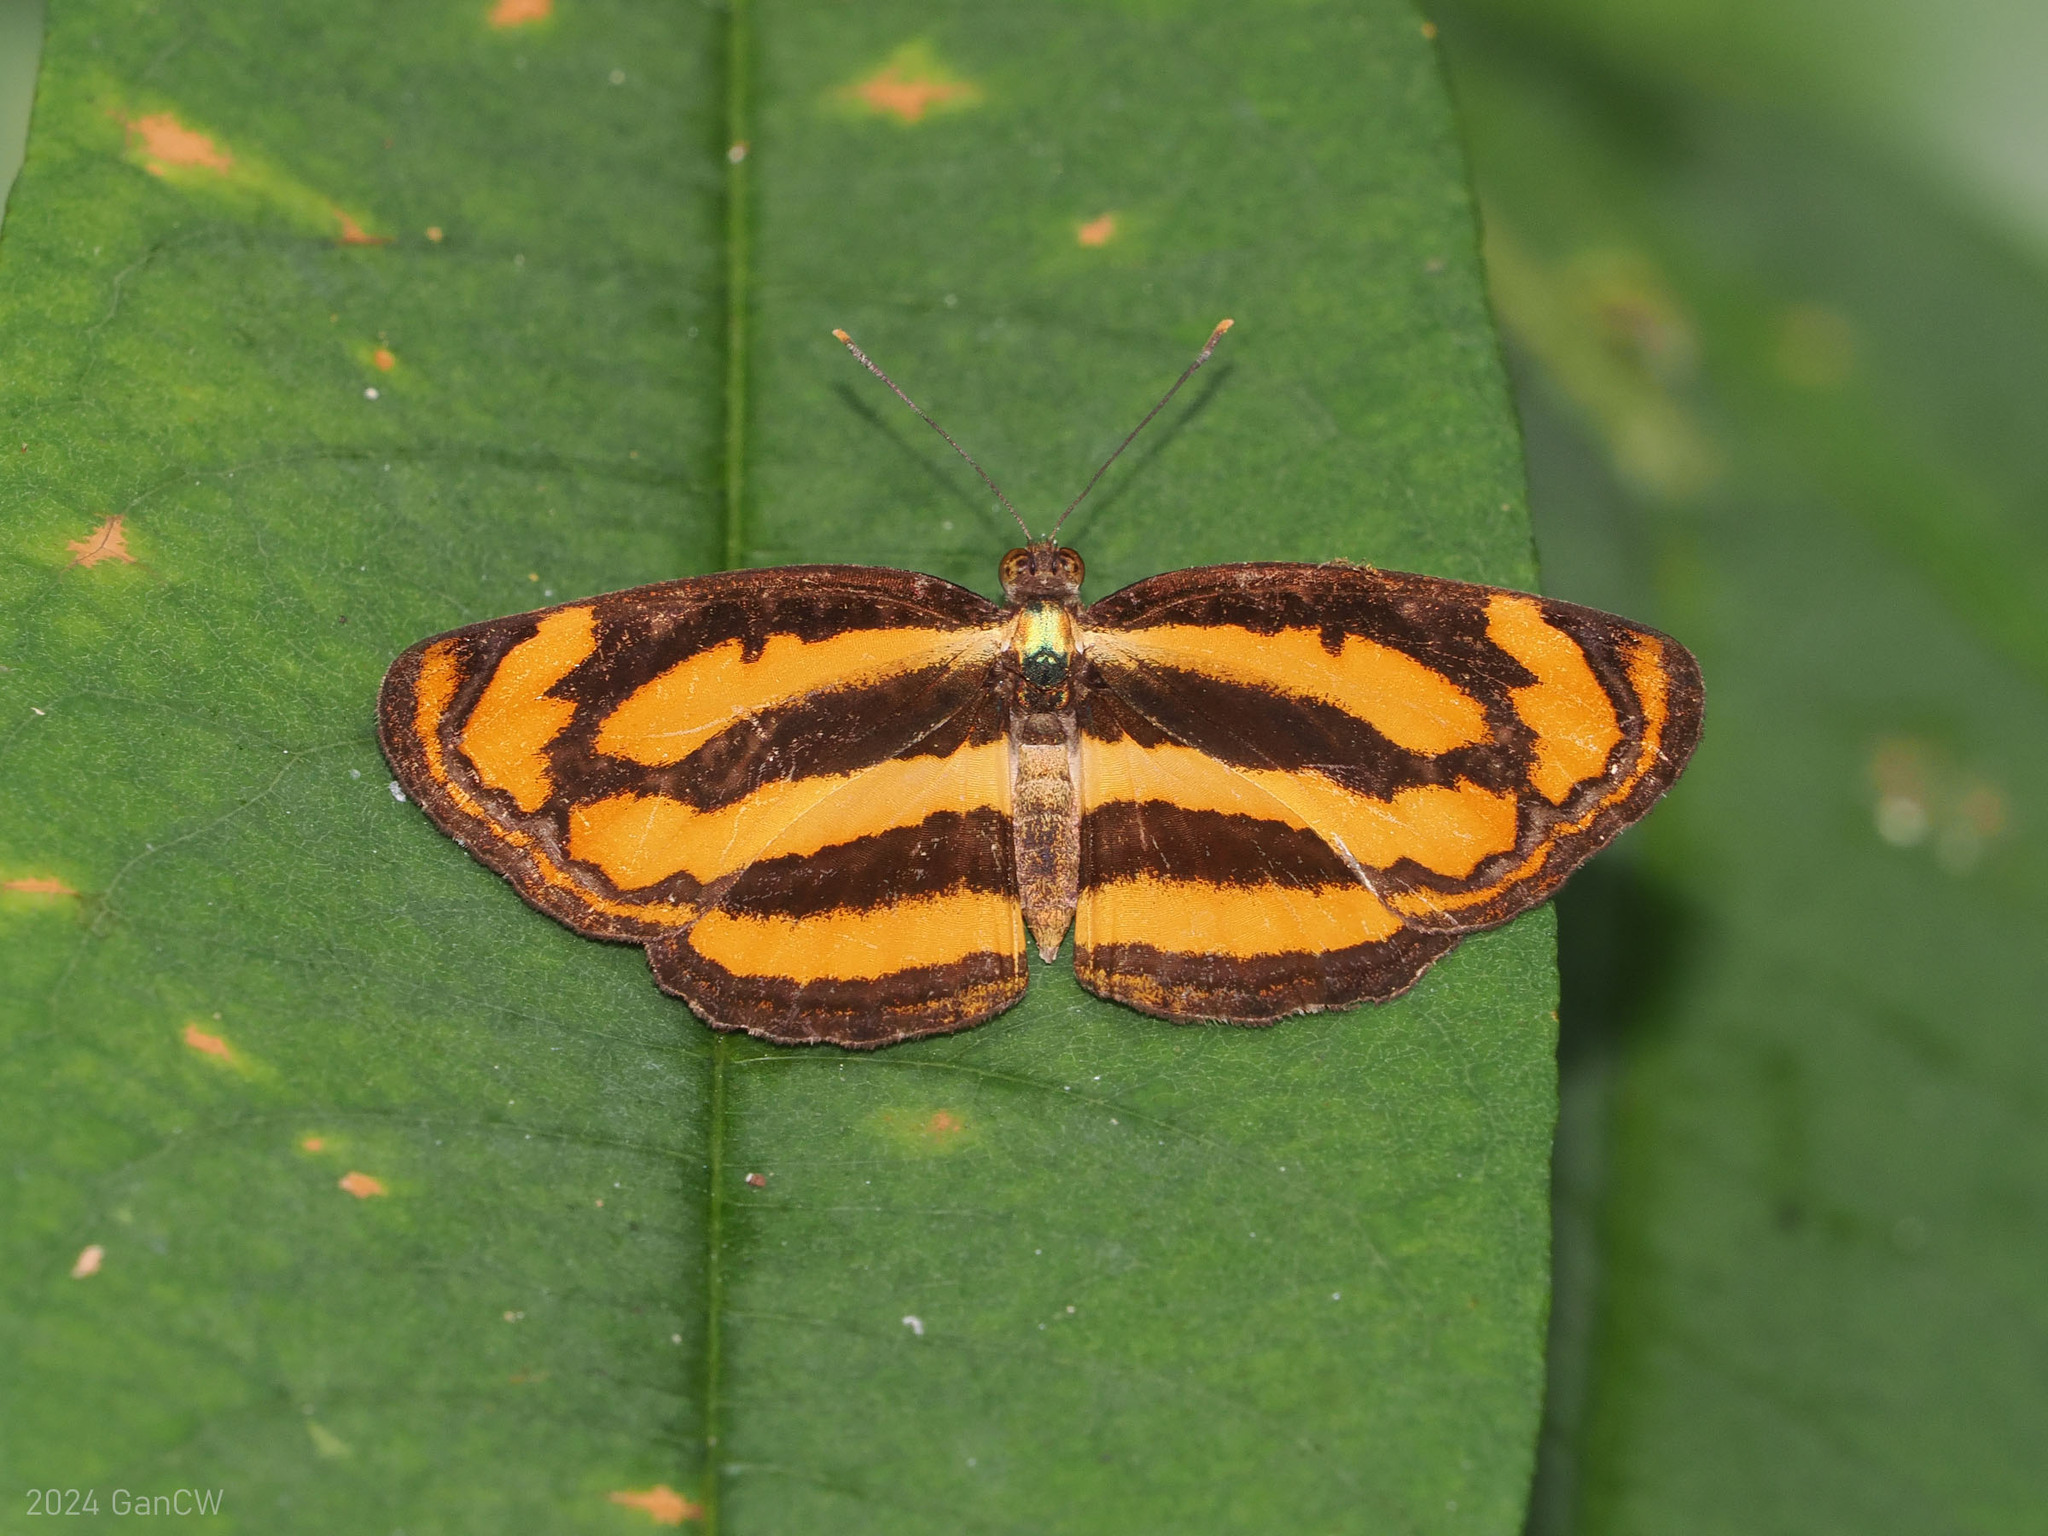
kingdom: Animalia
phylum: Arthropoda
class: Insecta
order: Lepidoptera
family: Nymphalidae
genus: Pantoporia
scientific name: Pantoporia hordonia
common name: Common lascar
